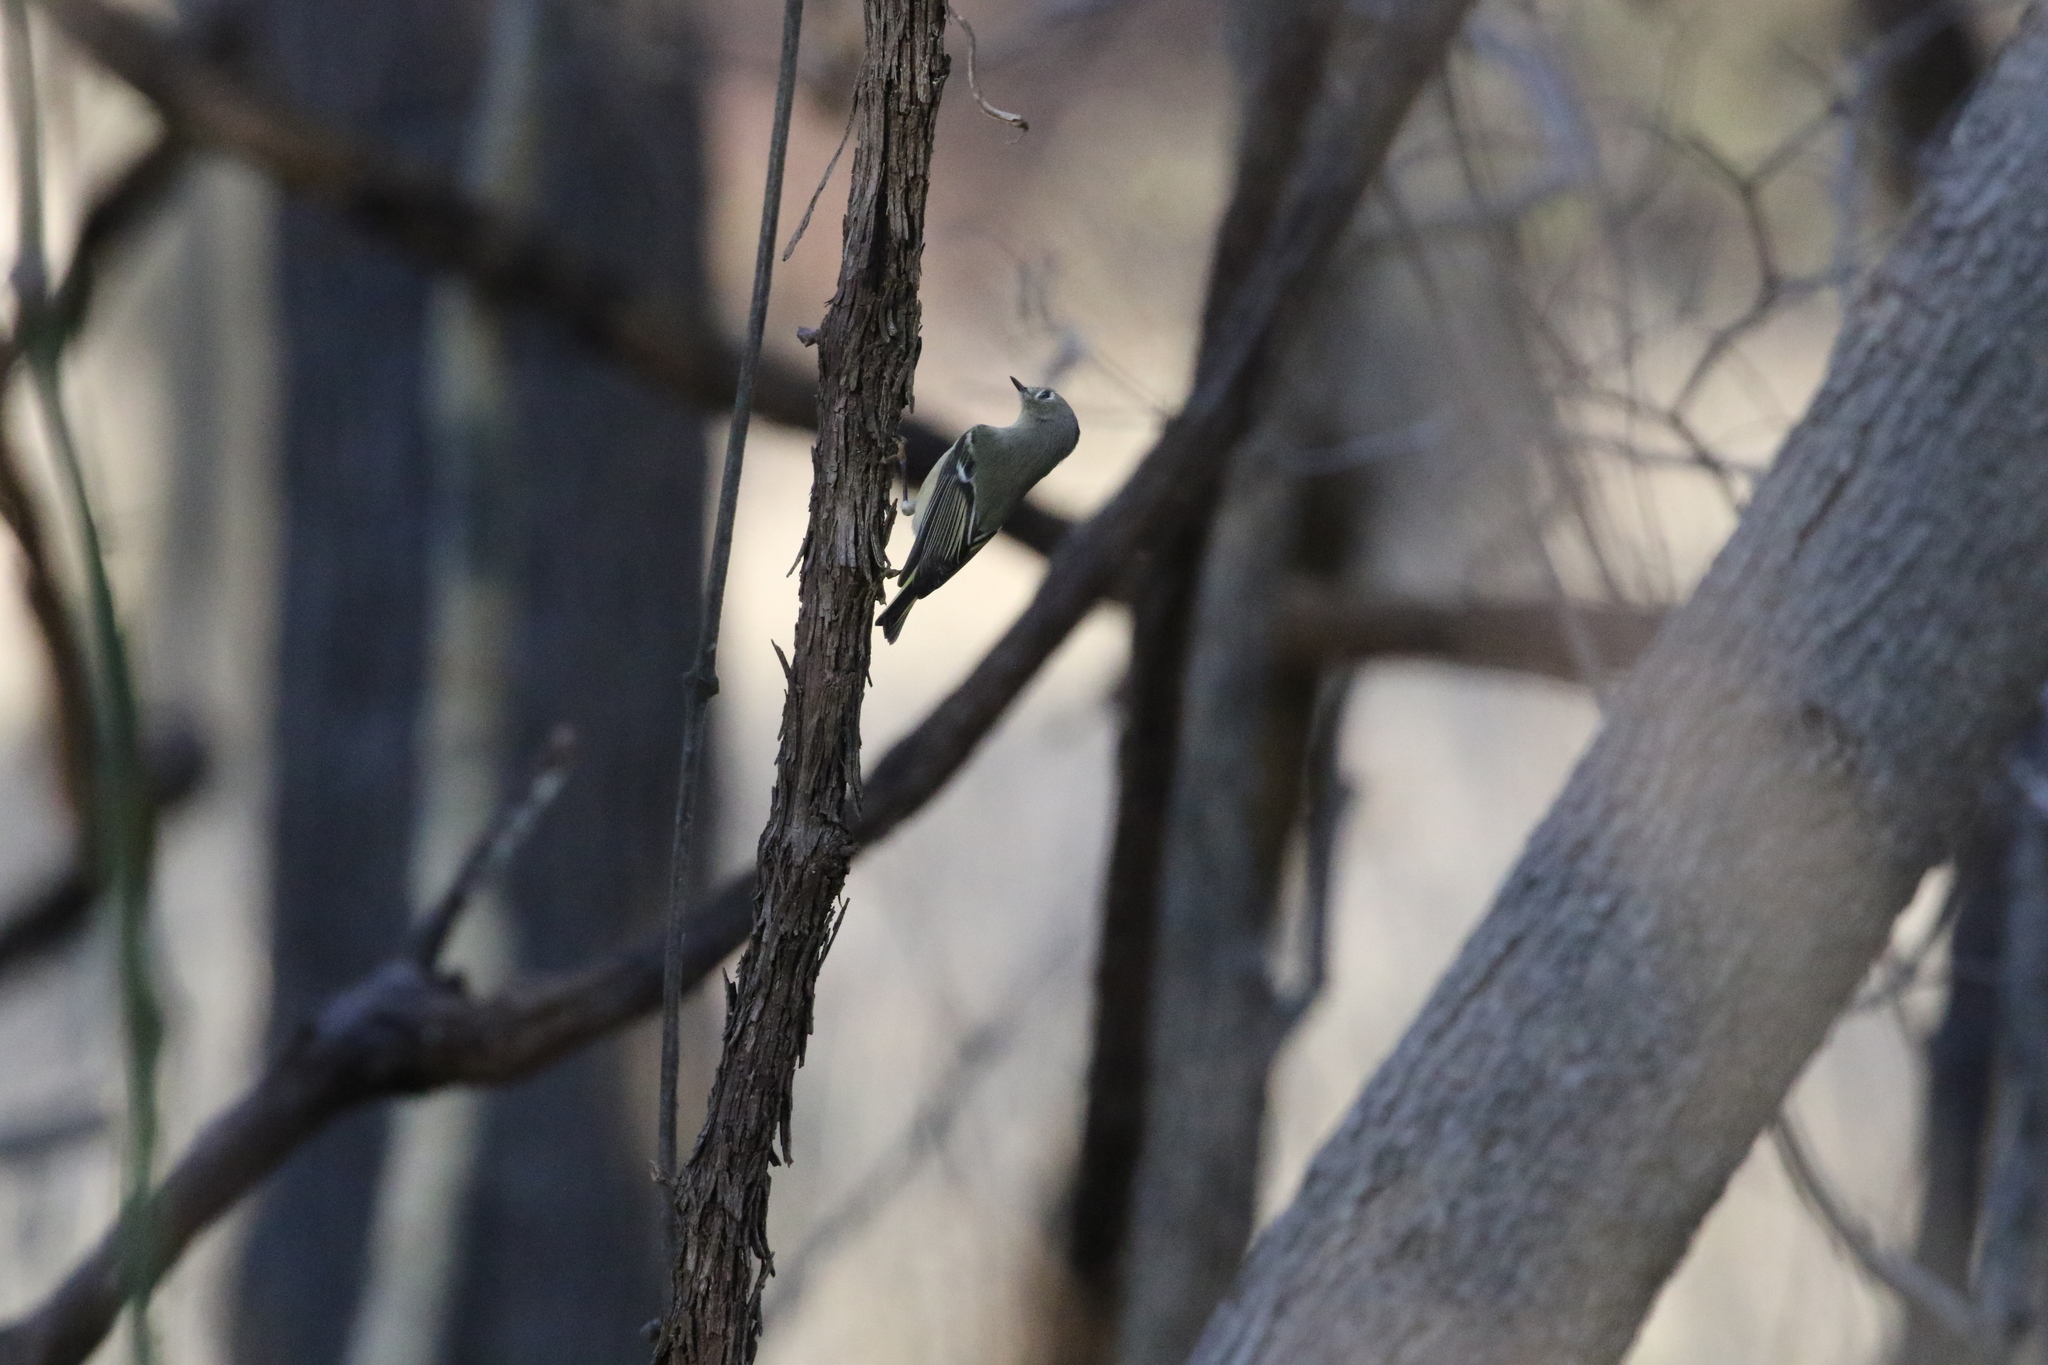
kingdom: Animalia
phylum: Chordata
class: Aves
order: Passeriformes
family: Regulidae
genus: Regulus
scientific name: Regulus calendula
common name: Ruby-crowned kinglet
